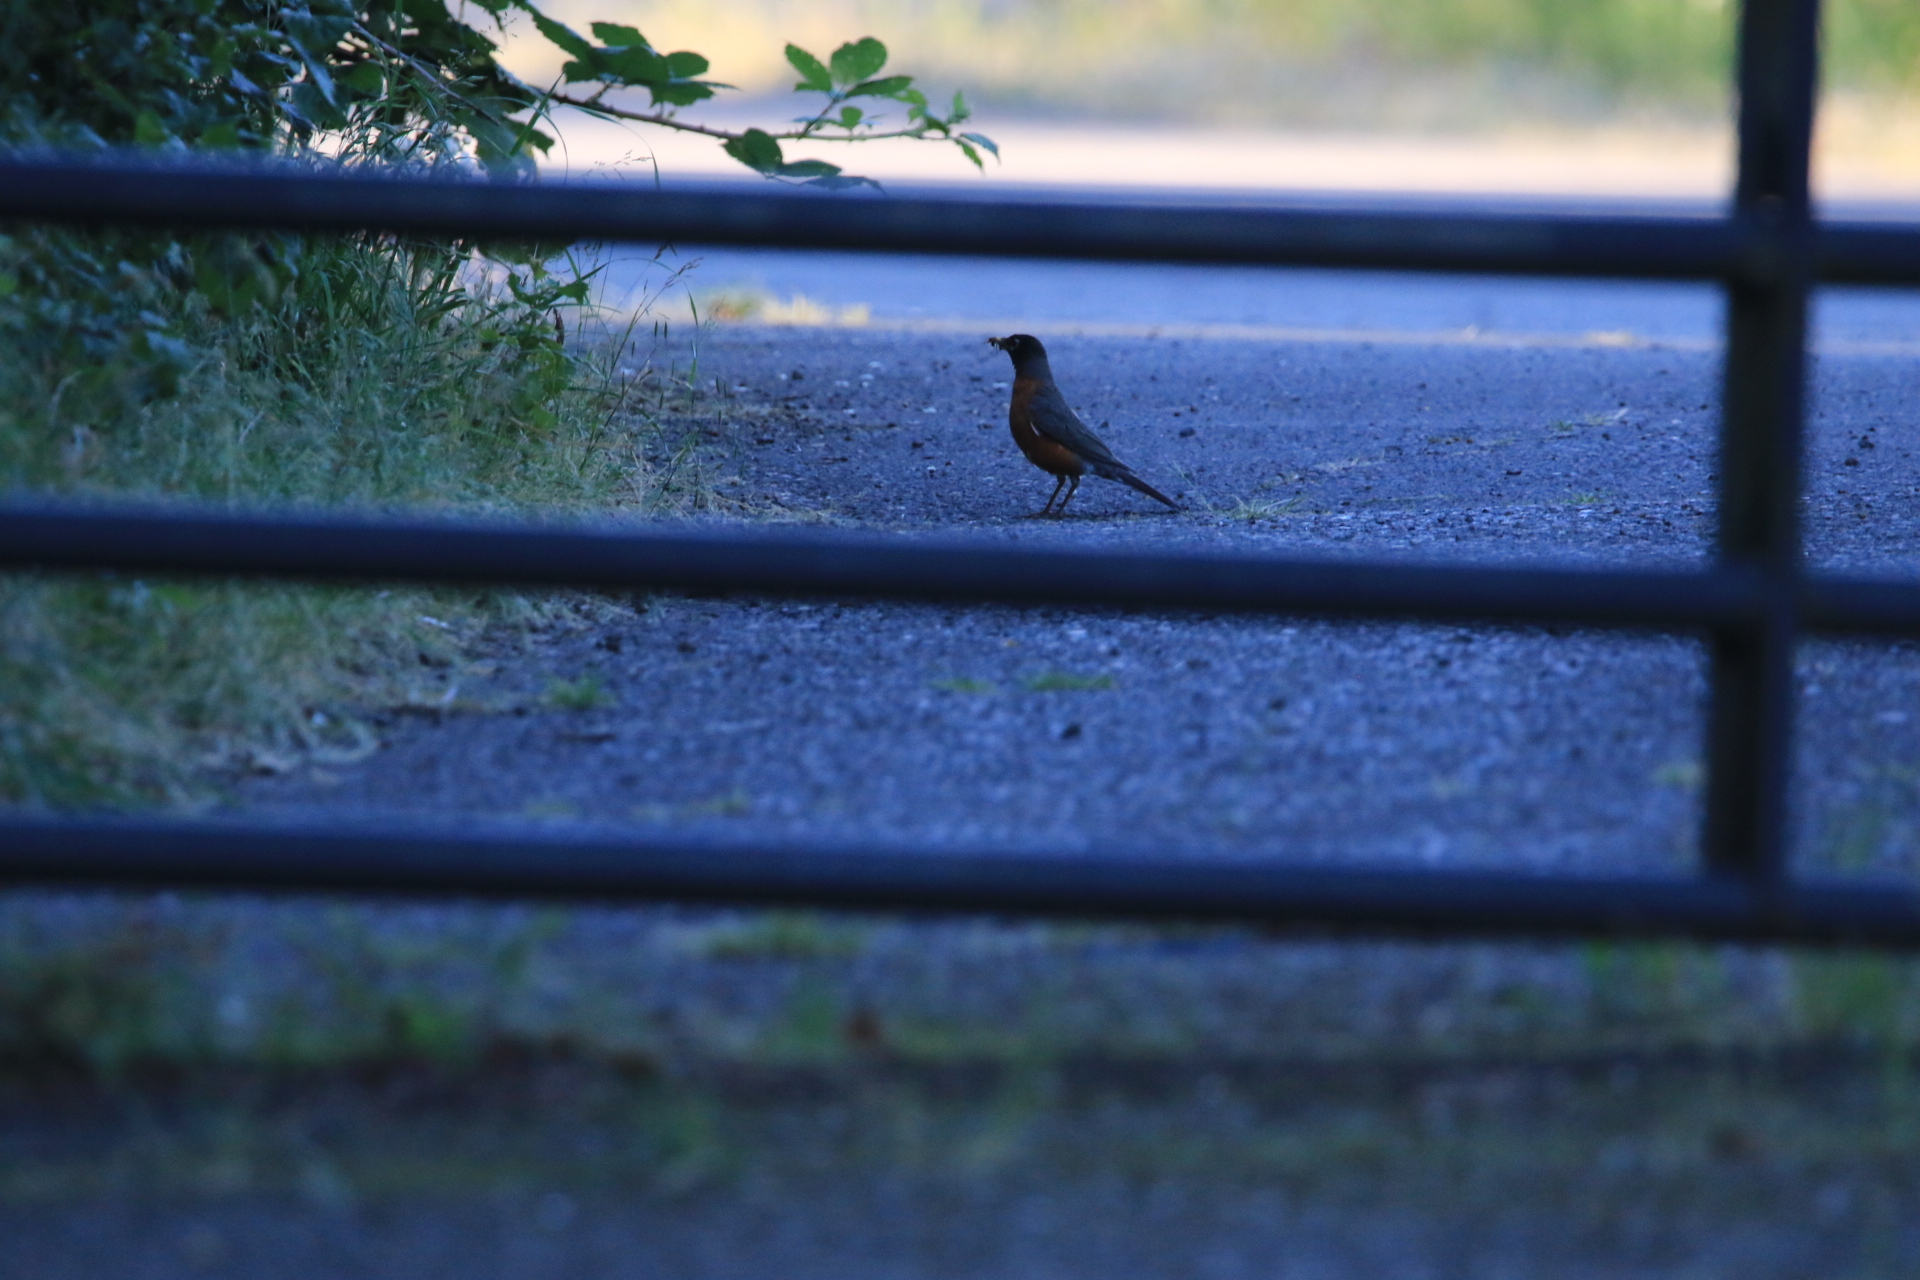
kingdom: Animalia
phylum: Chordata
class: Aves
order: Passeriformes
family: Turdidae
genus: Turdus
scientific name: Turdus migratorius
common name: American robin
